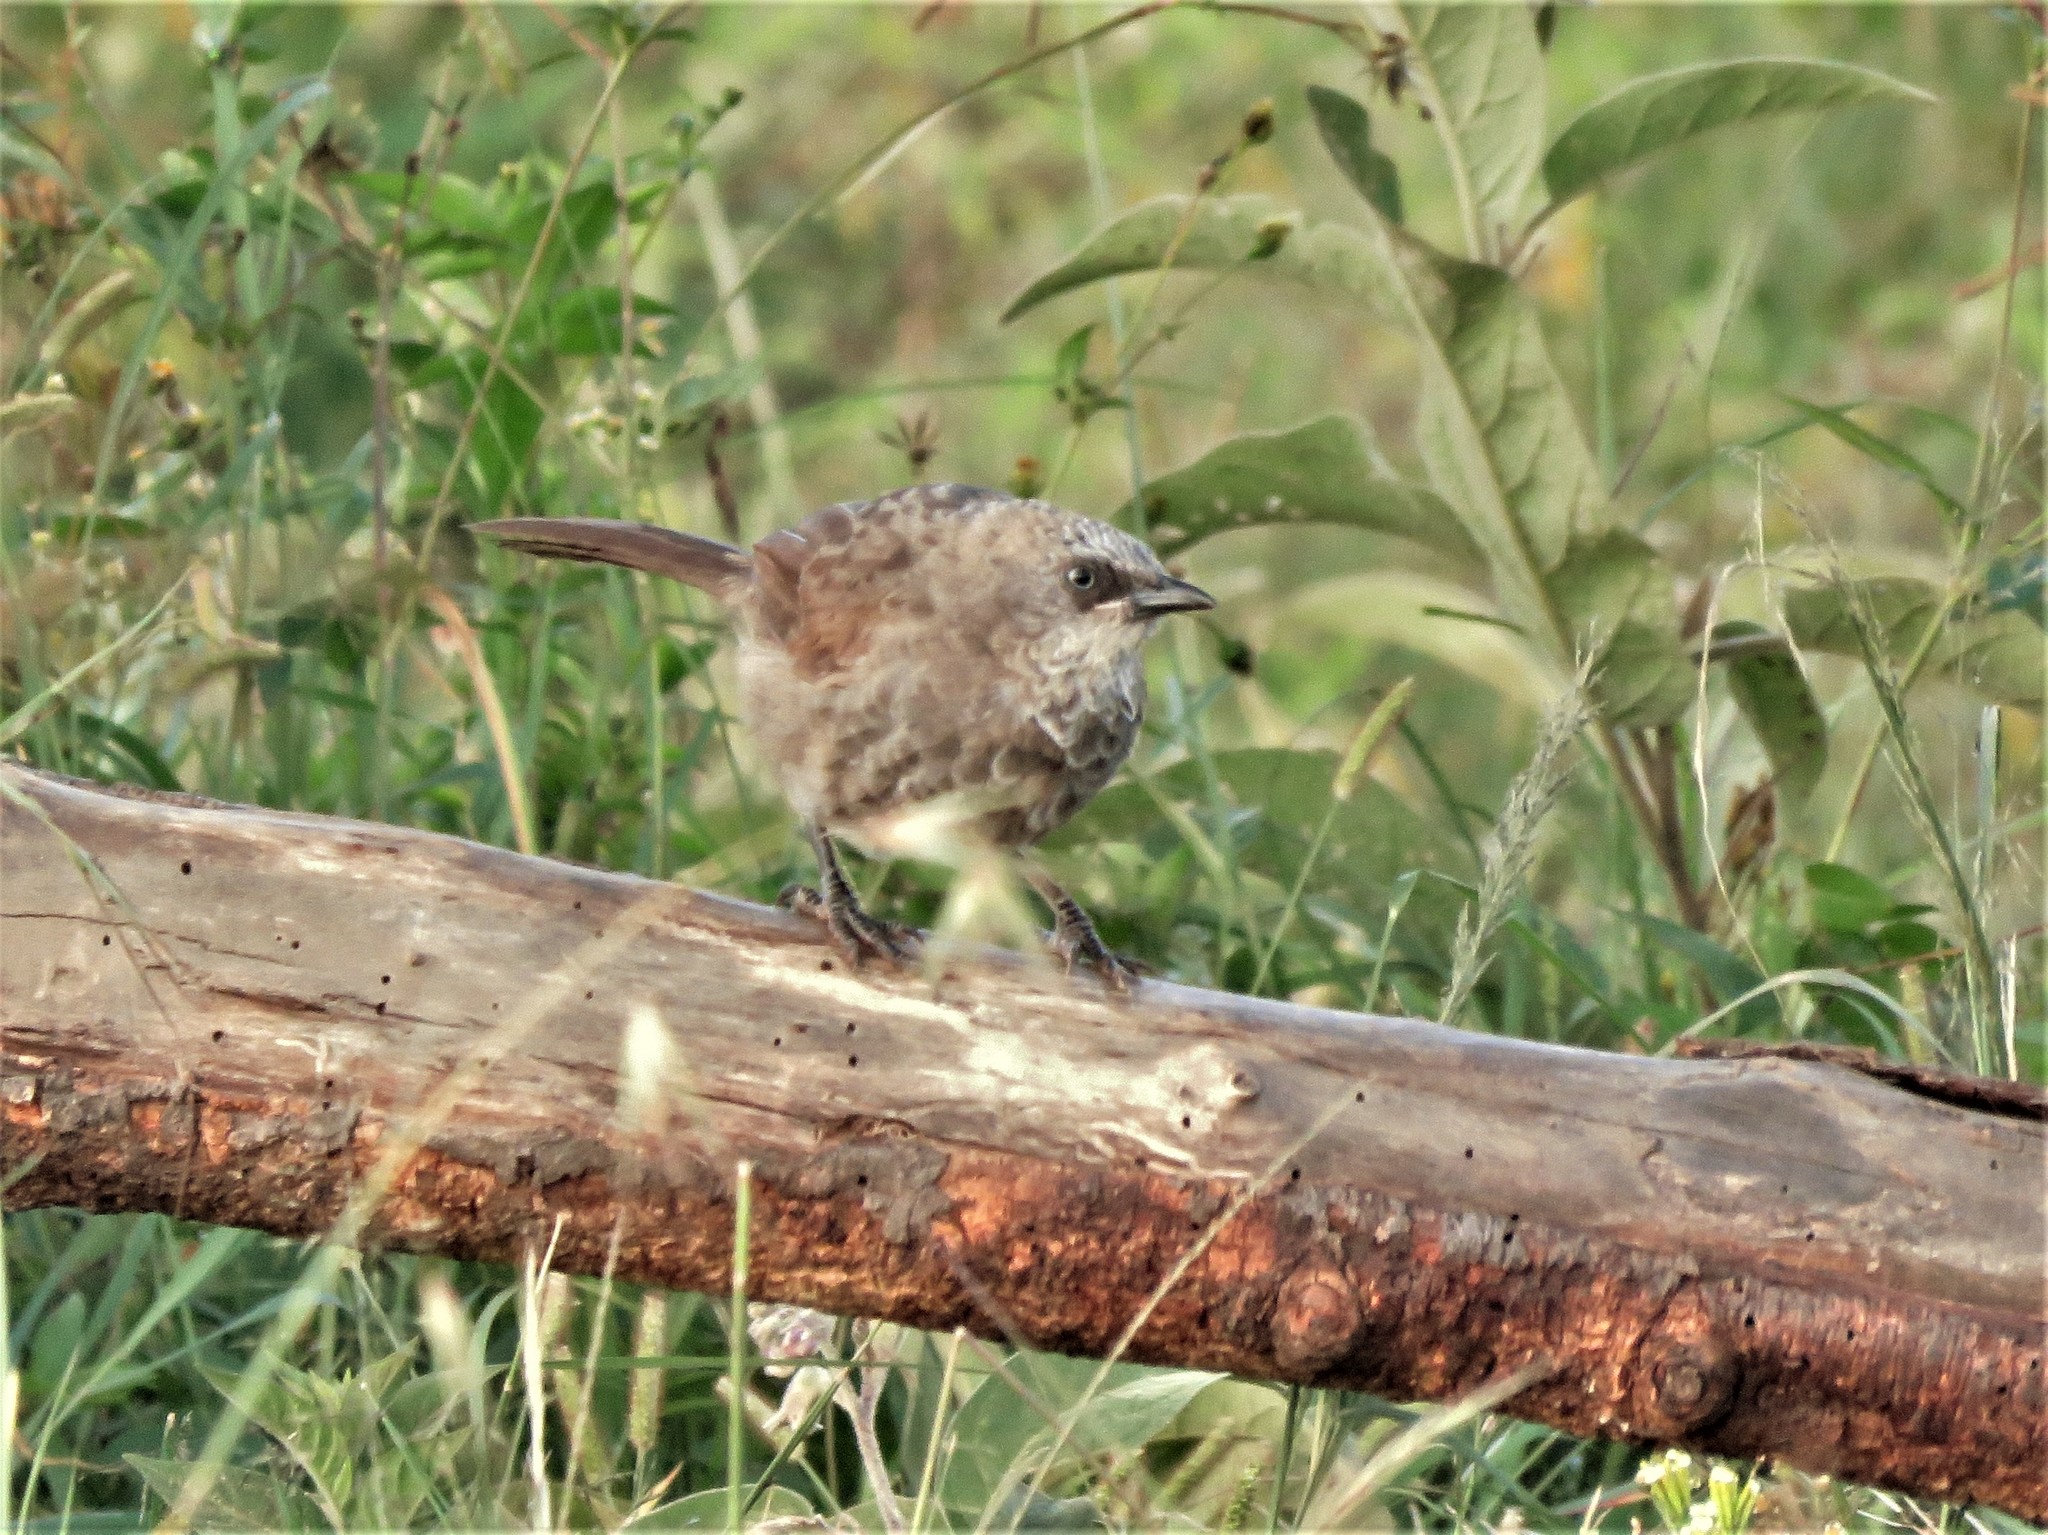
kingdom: Animalia
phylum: Chordata
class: Aves
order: Passeriformes
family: Leiothrichidae
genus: Turdoides
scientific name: Turdoides sharpei
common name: Black-lored babbler
